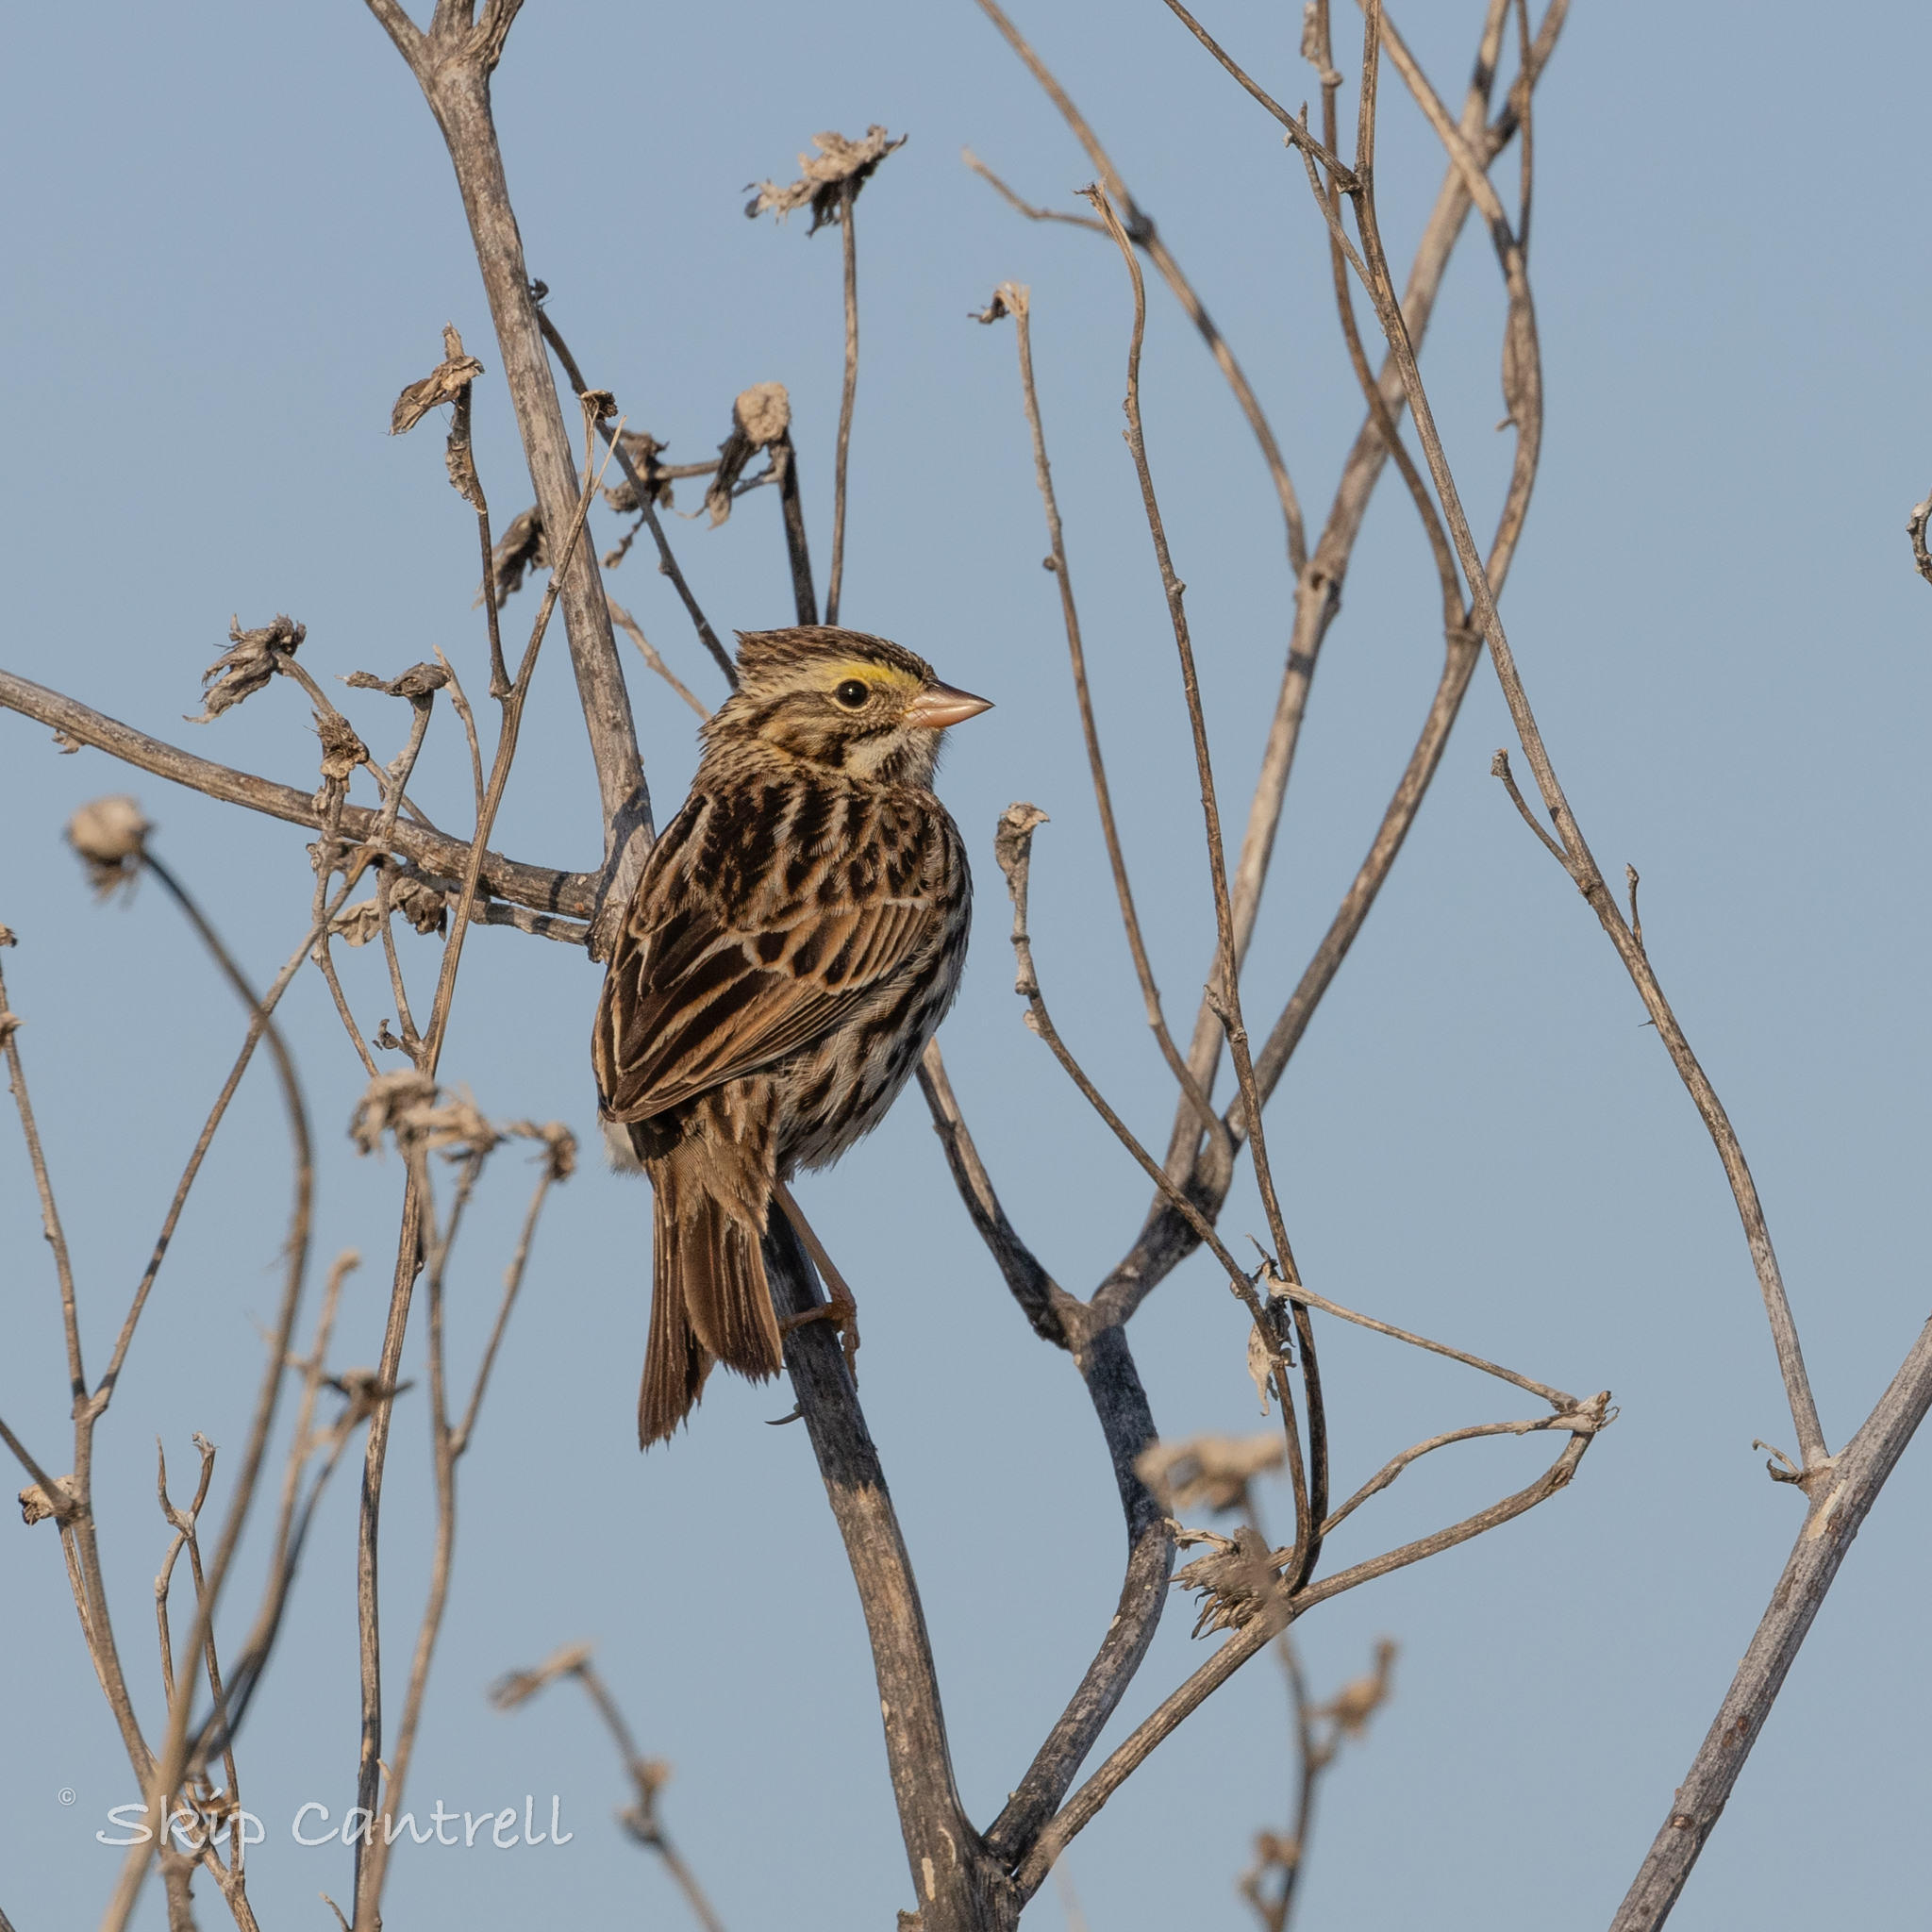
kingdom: Animalia
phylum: Chordata
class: Aves
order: Passeriformes
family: Passerellidae
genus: Passerculus
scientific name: Passerculus sandwichensis
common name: Savannah sparrow
